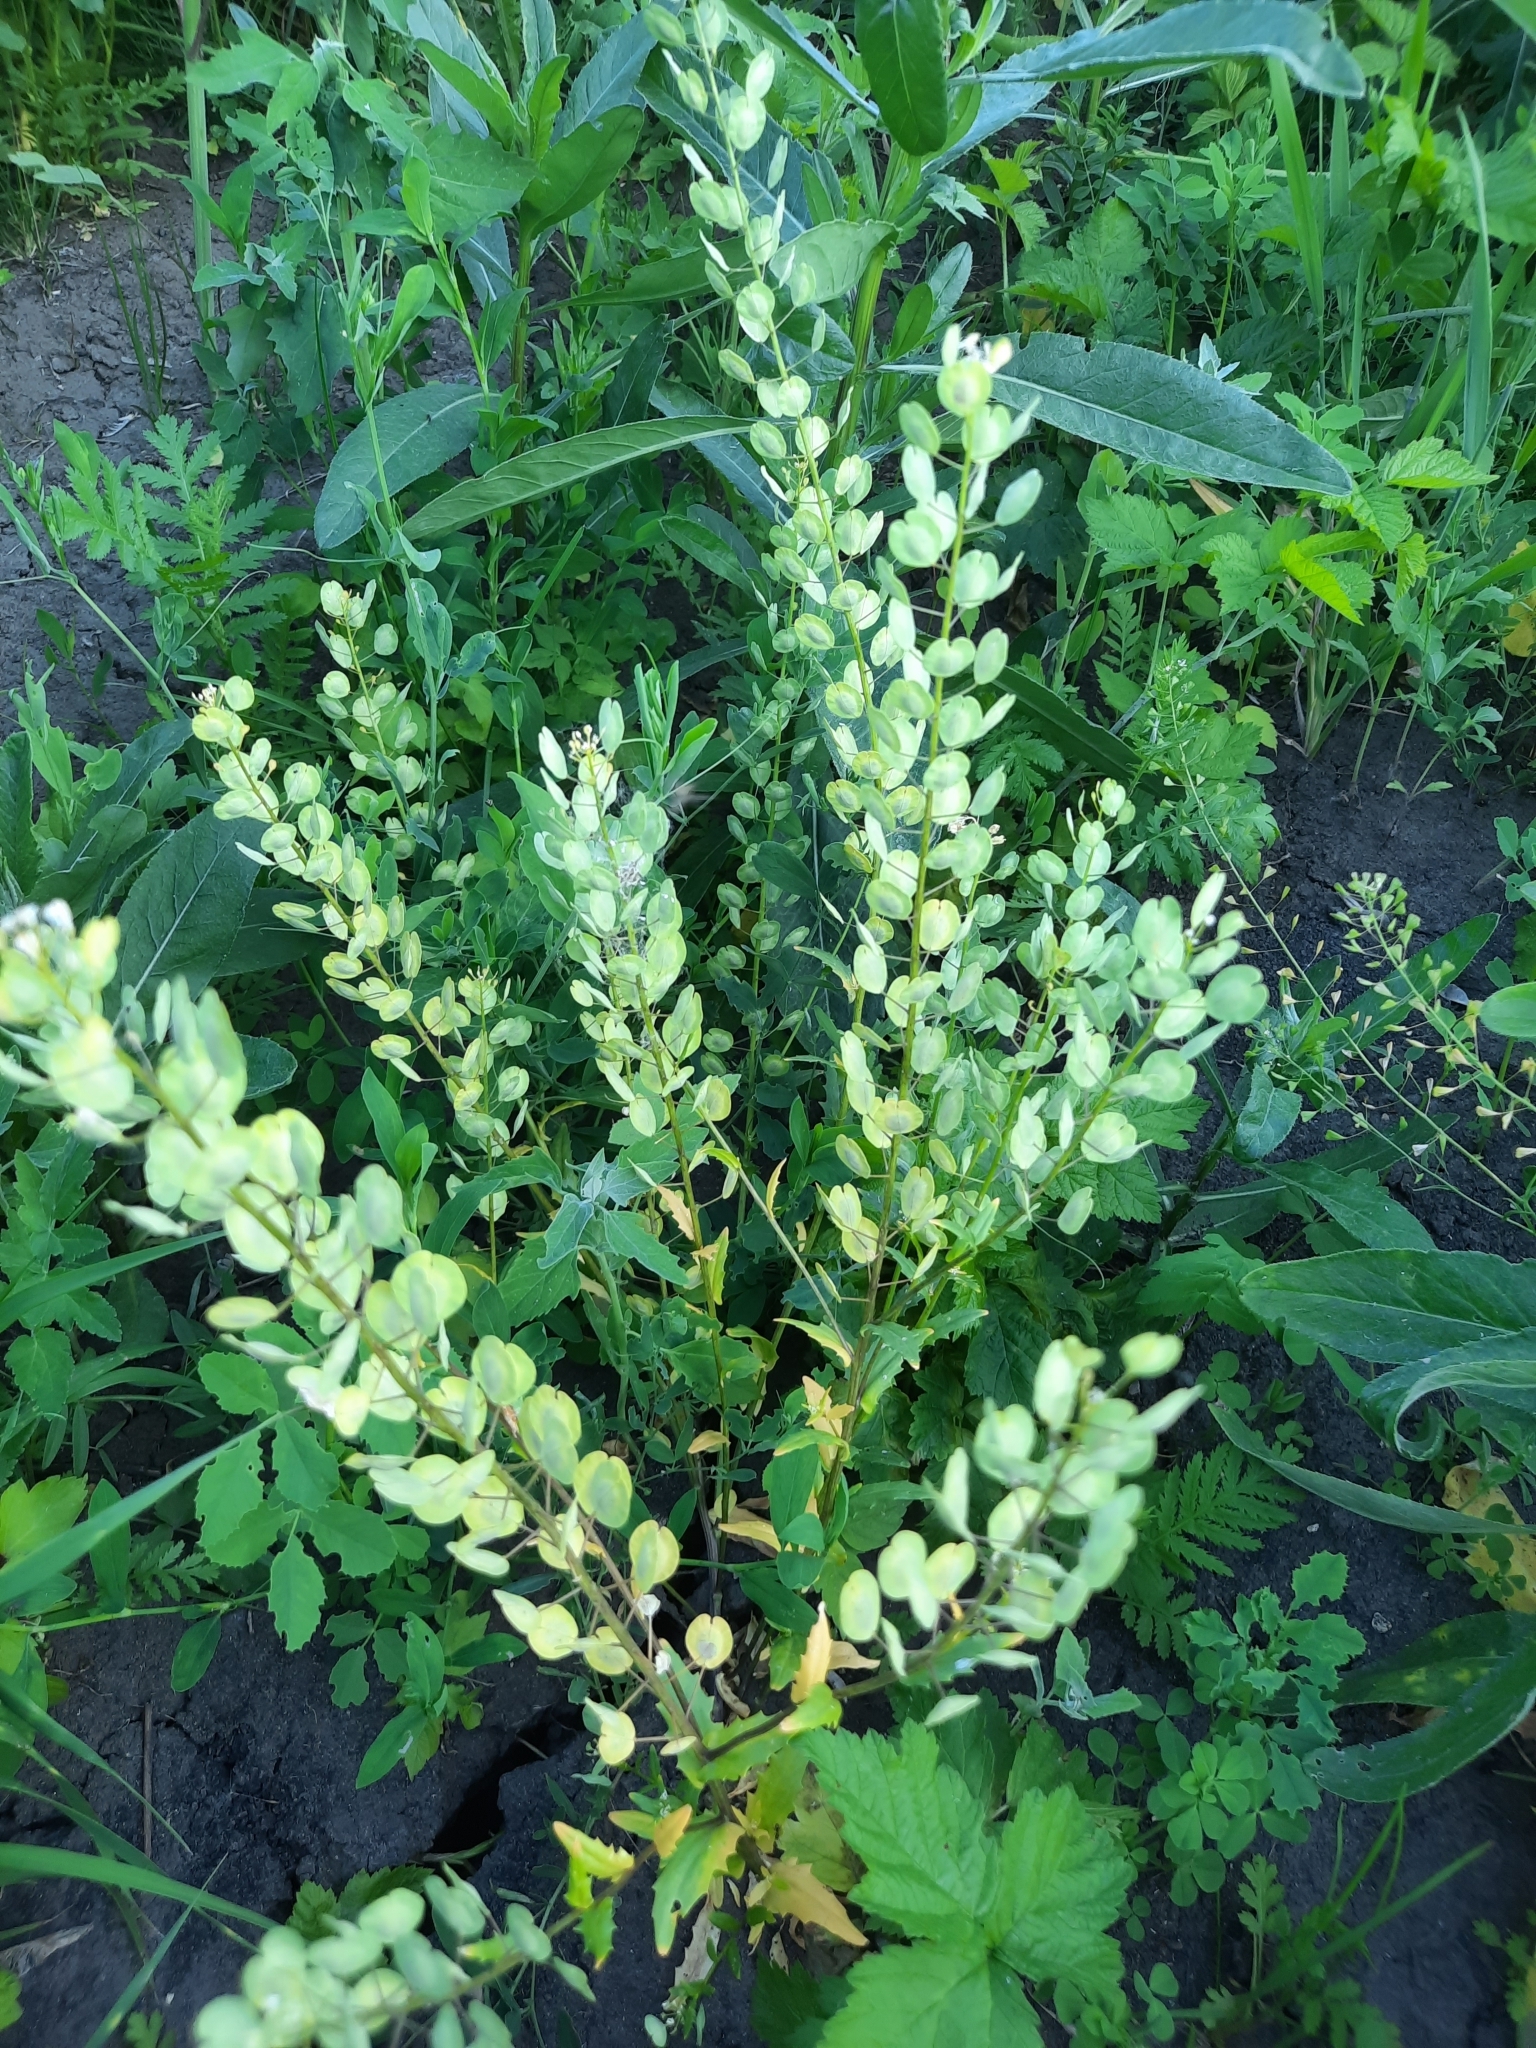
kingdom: Plantae
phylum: Tracheophyta
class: Magnoliopsida
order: Brassicales
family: Brassicaceae
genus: Thlaspi
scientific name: Thlaspi arvense
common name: Field pennycress
